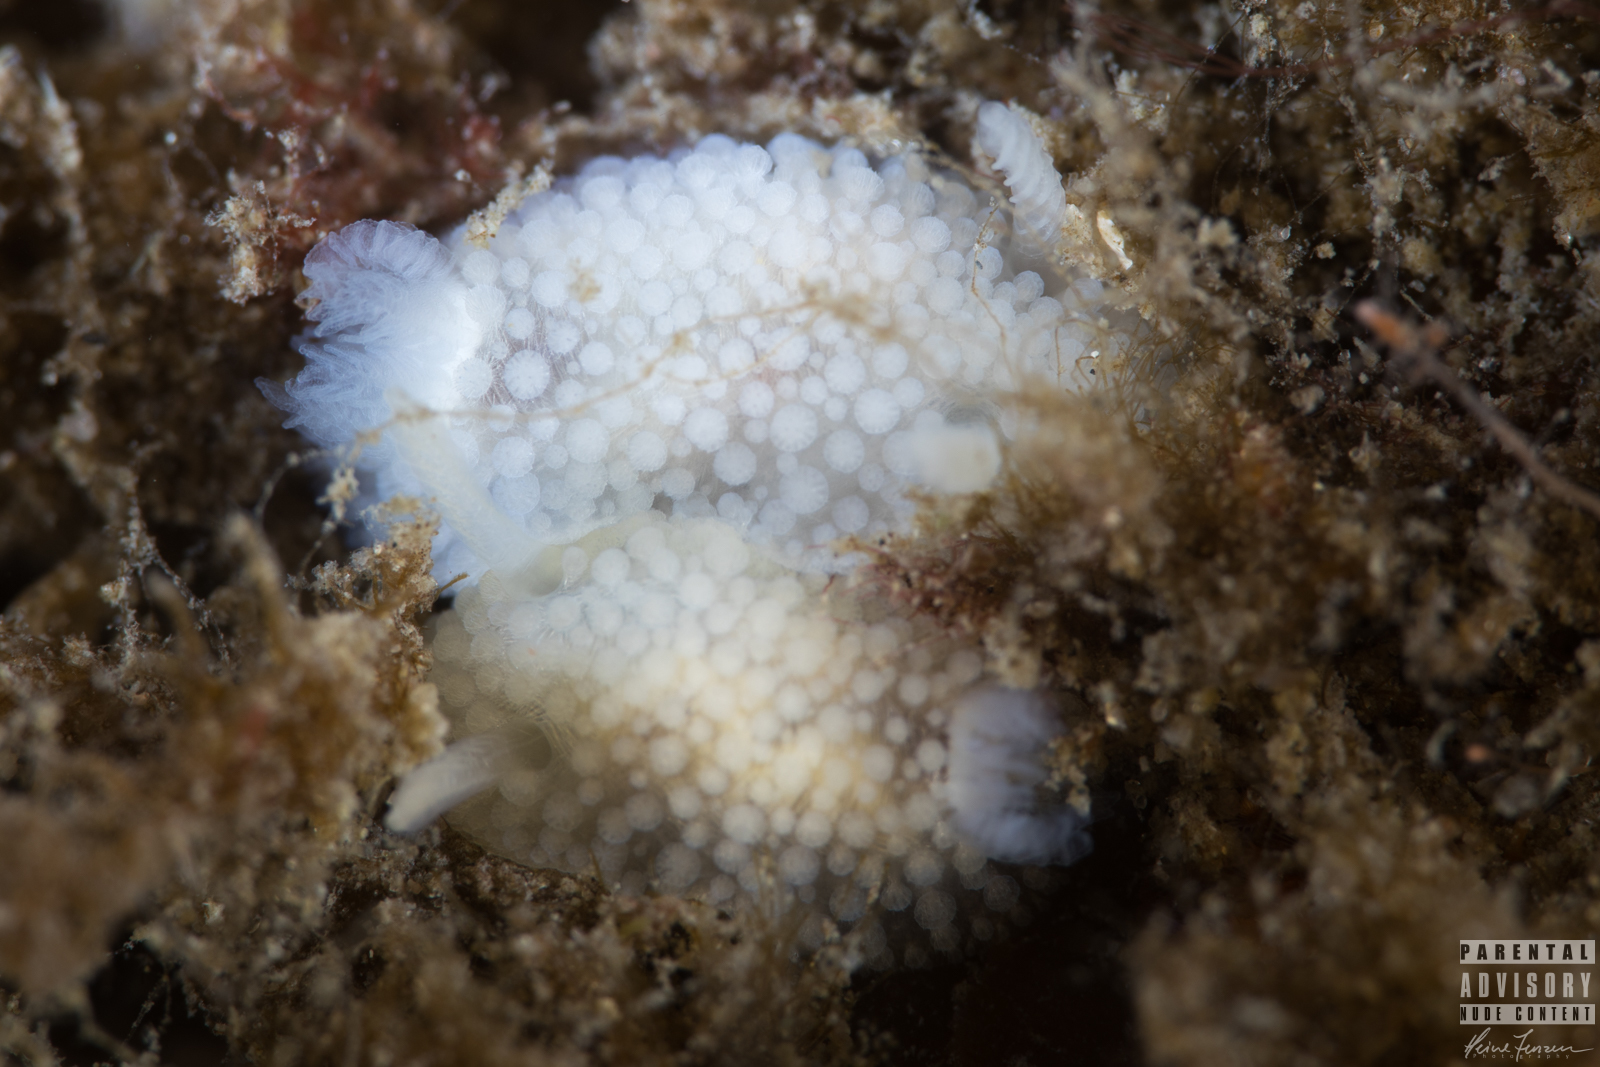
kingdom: Animalia
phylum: Mollusca
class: Gastropoda
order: Nudibranchia
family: Onchidorididae
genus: Onchidoris
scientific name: Onchidoris muricata
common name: Rough doris
